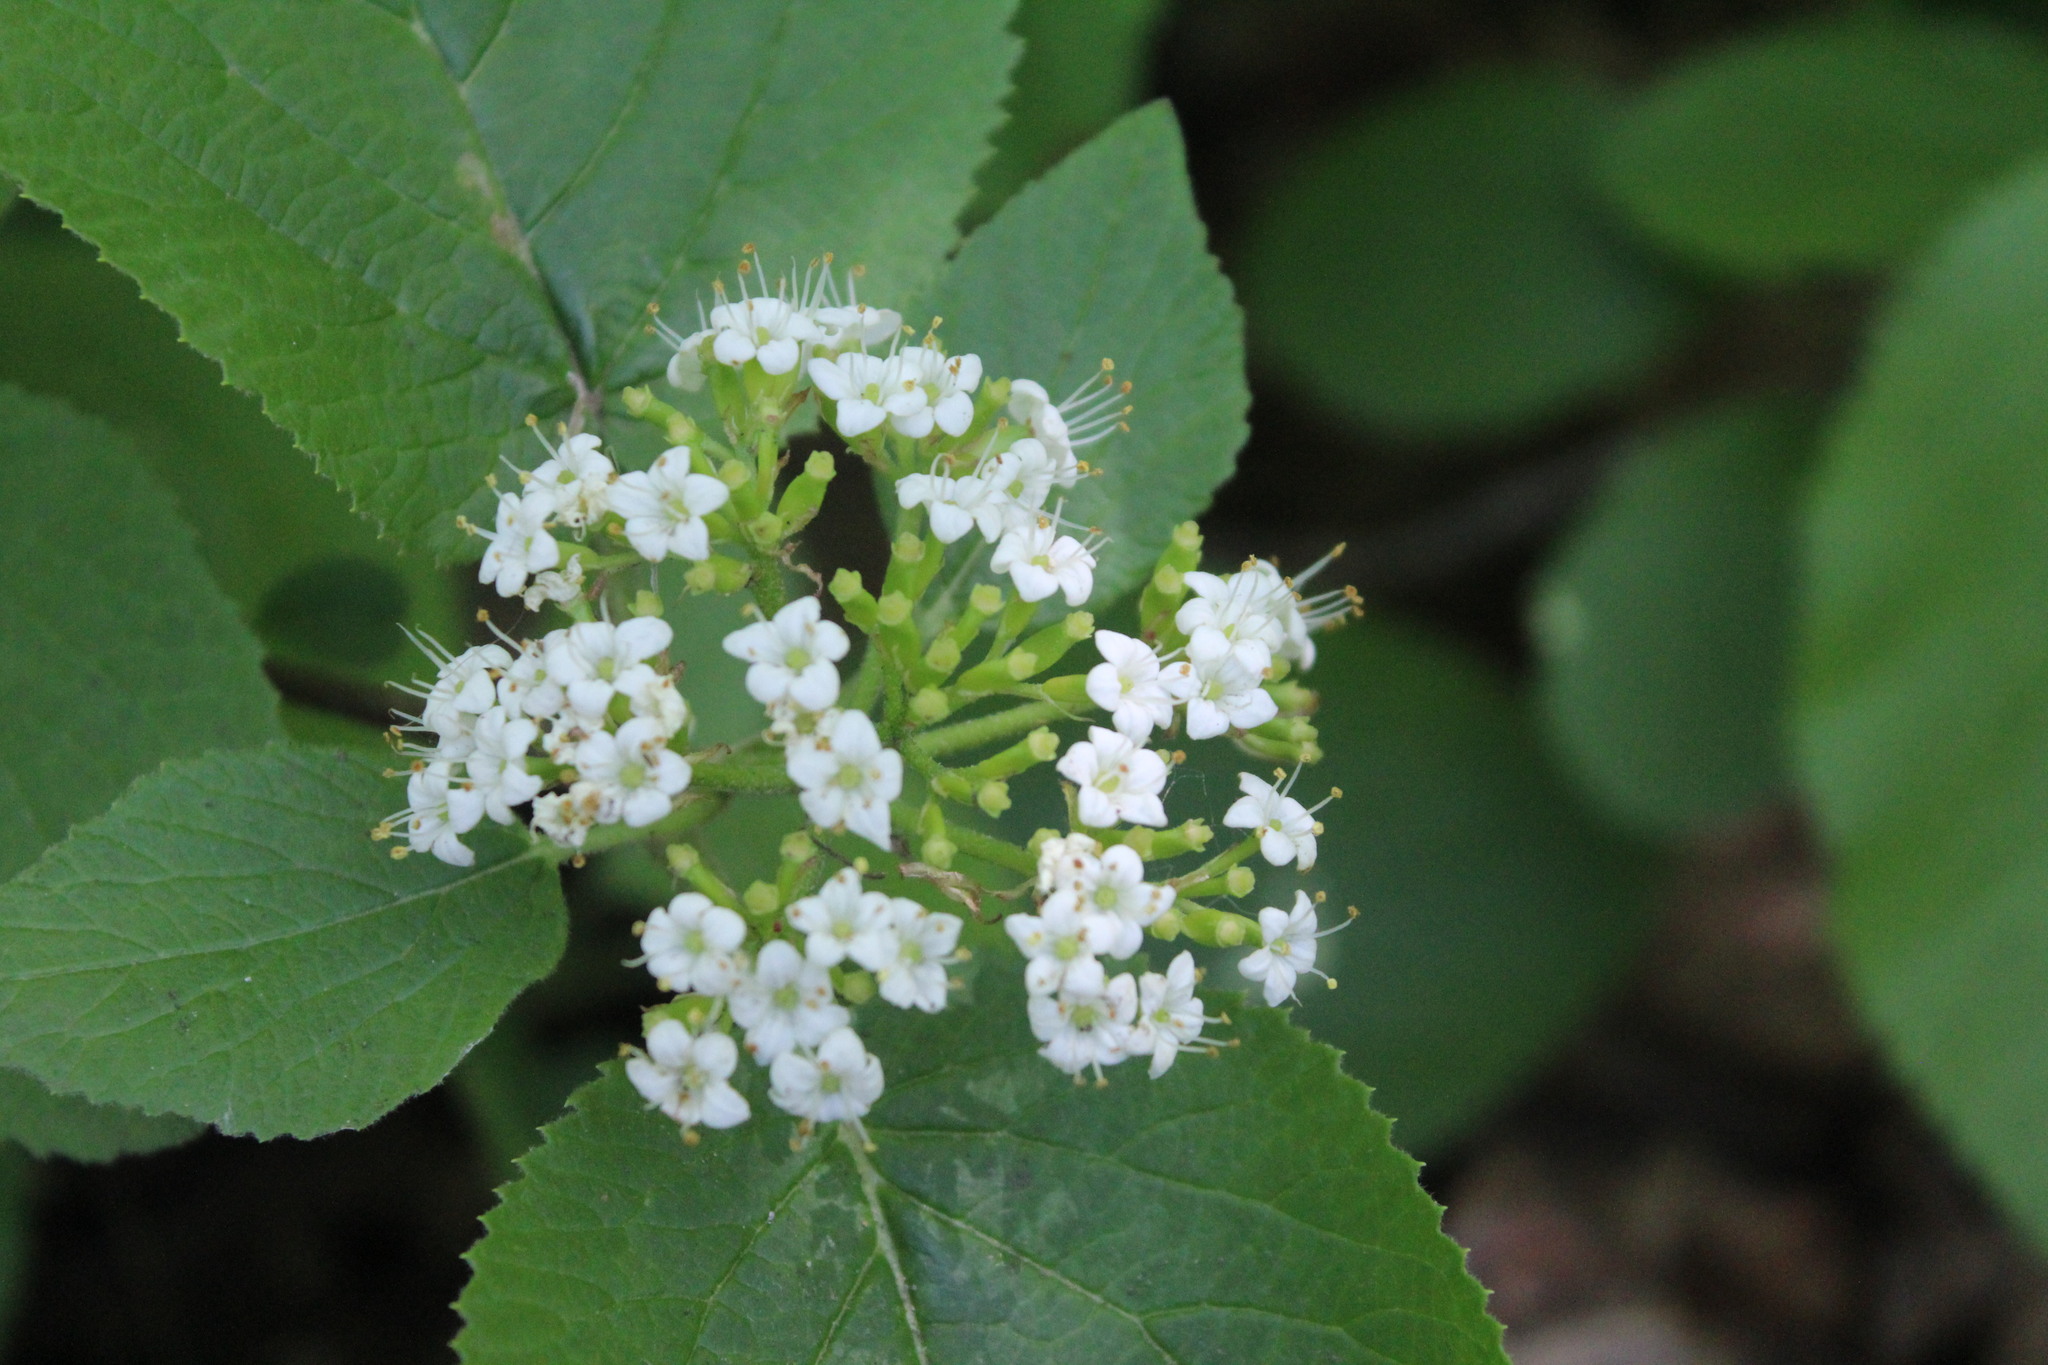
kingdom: Plantae
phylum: Tracheophyta
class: Magnoliopsida
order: Dipsacales
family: Viburnaceae
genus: Viburnum
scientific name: Viburnum lantana
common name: Wayfaring tree
